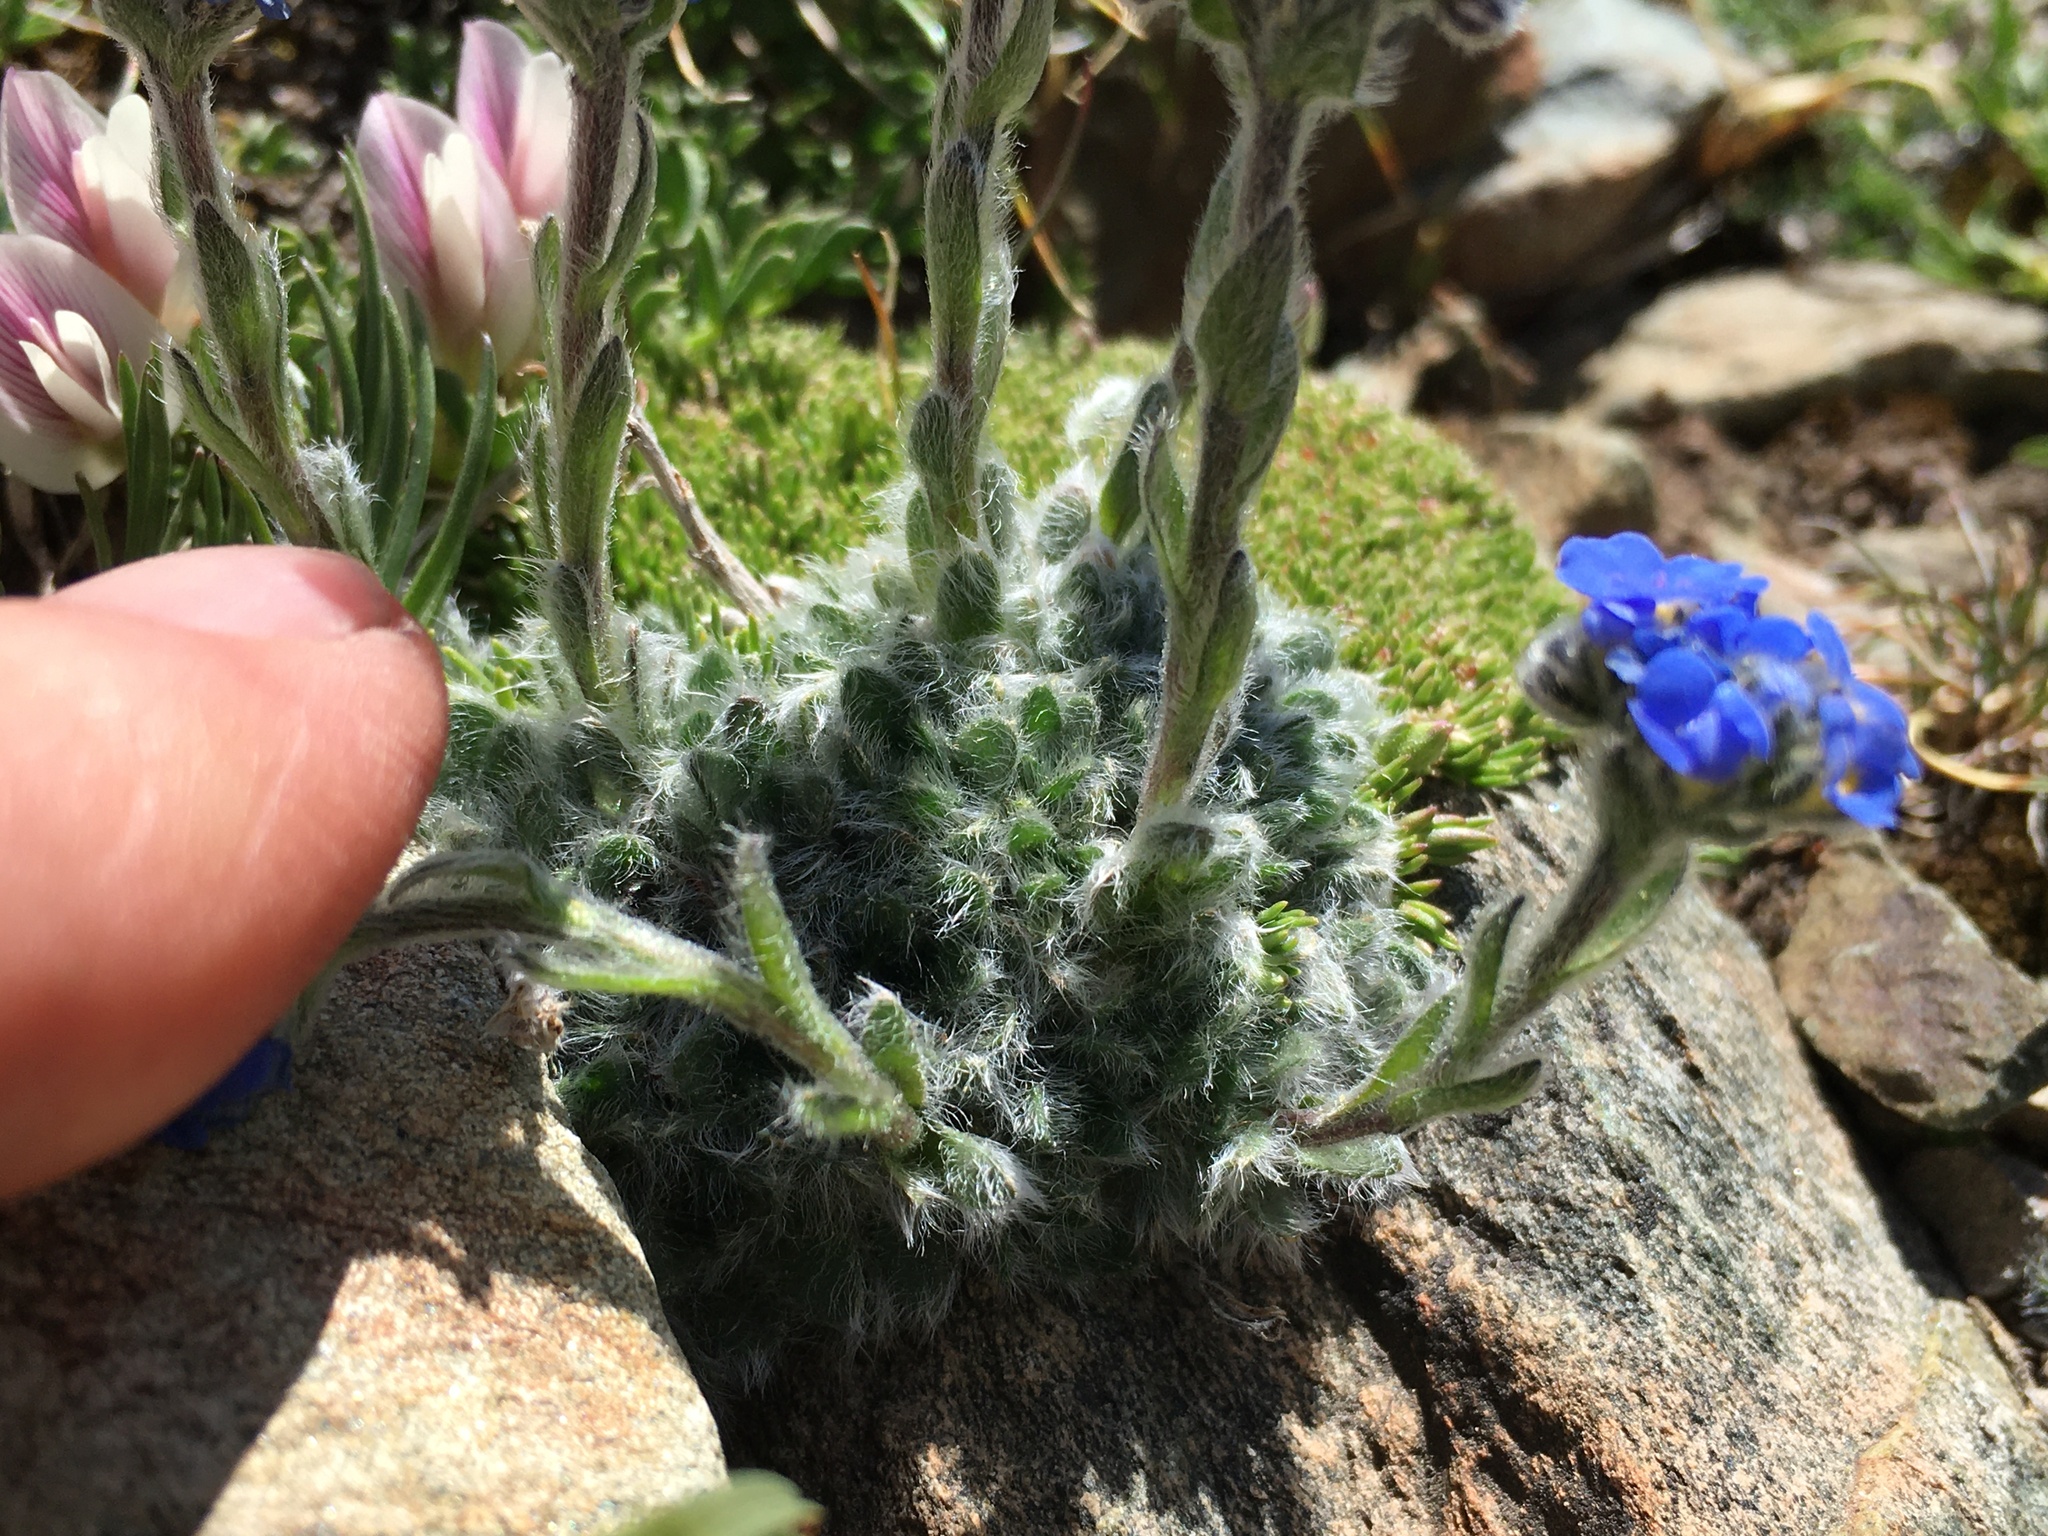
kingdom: Plantae
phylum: Tracheophyta
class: Magnoliopsida
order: Boraginales
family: Boraginaceae
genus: Eritrichium
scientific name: Eritrichium argenteum
